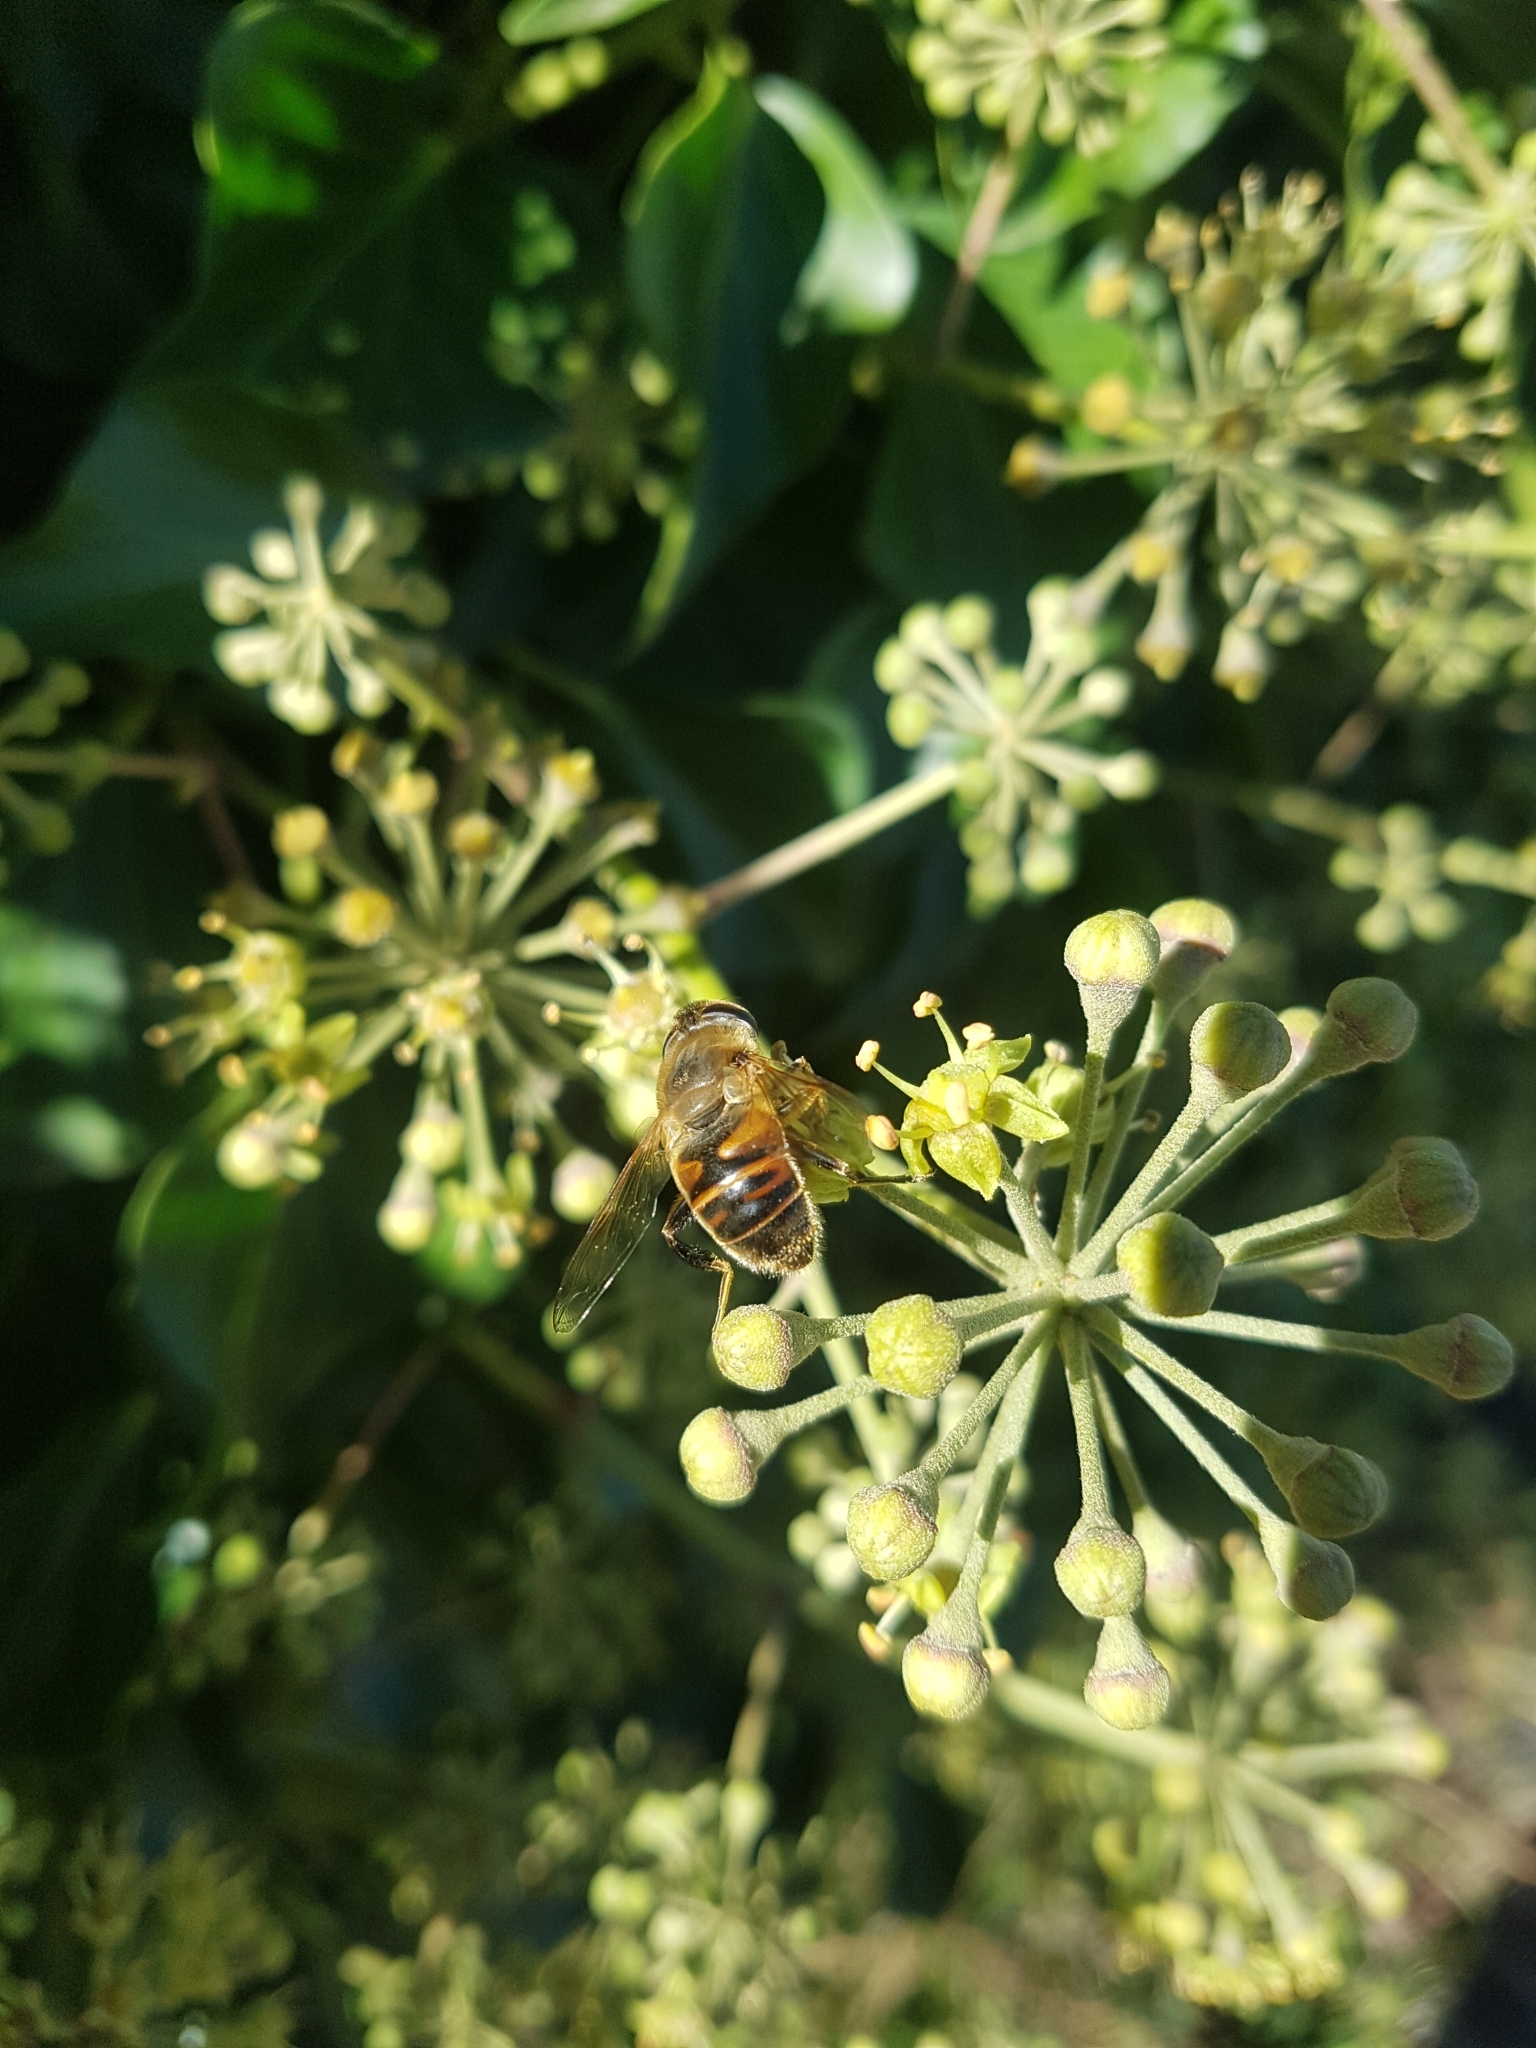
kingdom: Animalia
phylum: Arthropoda
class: Insecta
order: Diptera
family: Syrphidae
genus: Eristalis
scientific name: Eristalis tenax
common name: Drone fly
